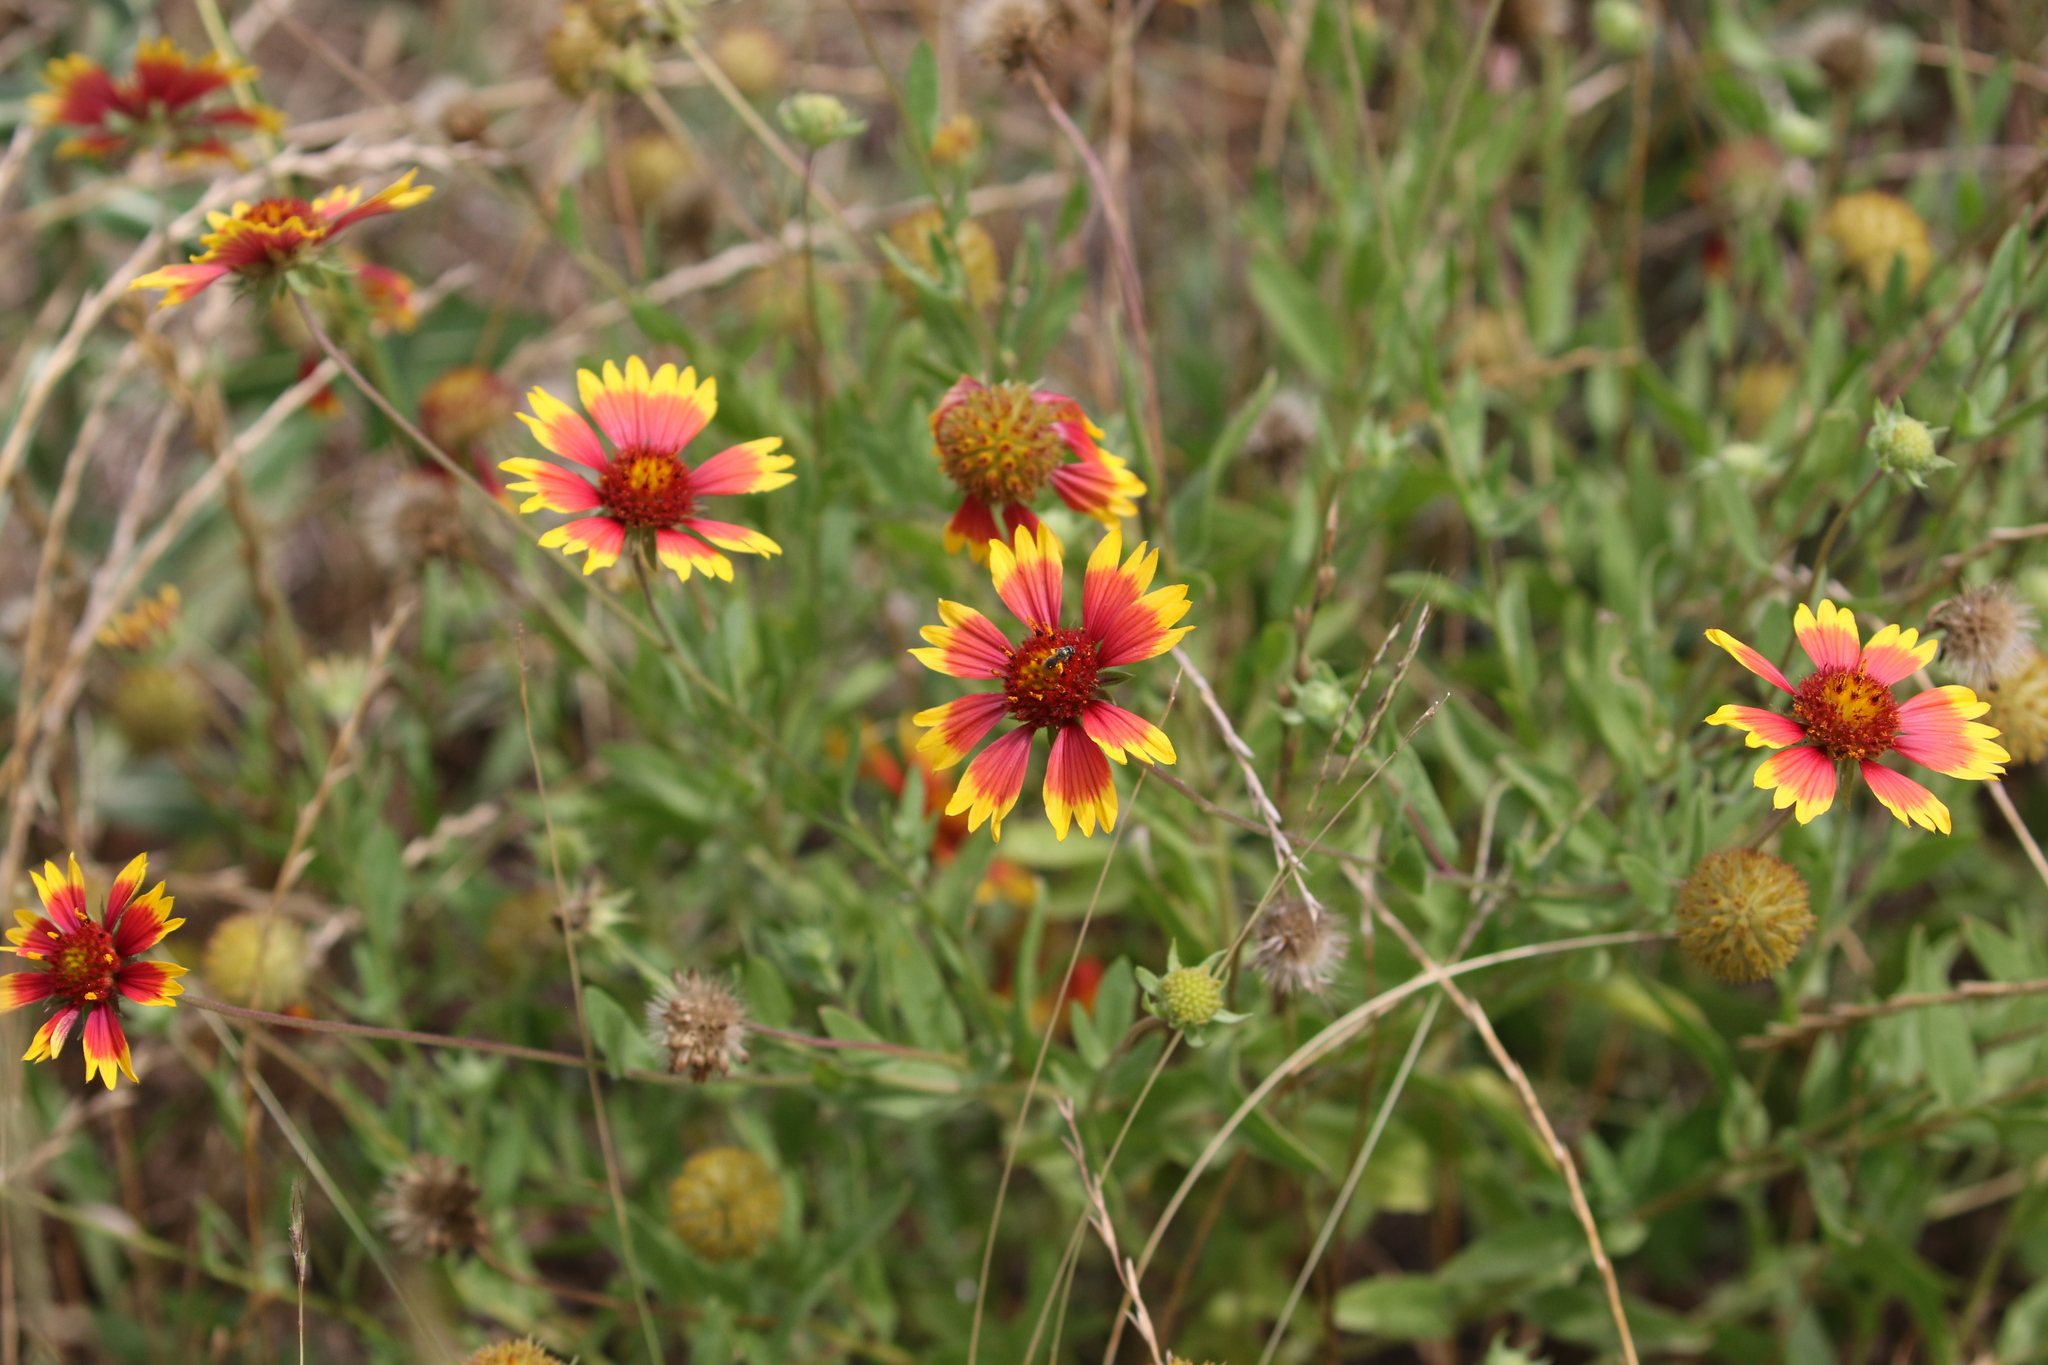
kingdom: Plantae
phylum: Tracheophyta
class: Magnoliopsida
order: Asterales
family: Asteraceae
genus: Gaillardia
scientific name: Gaillardia pulchella
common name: Firewheel
